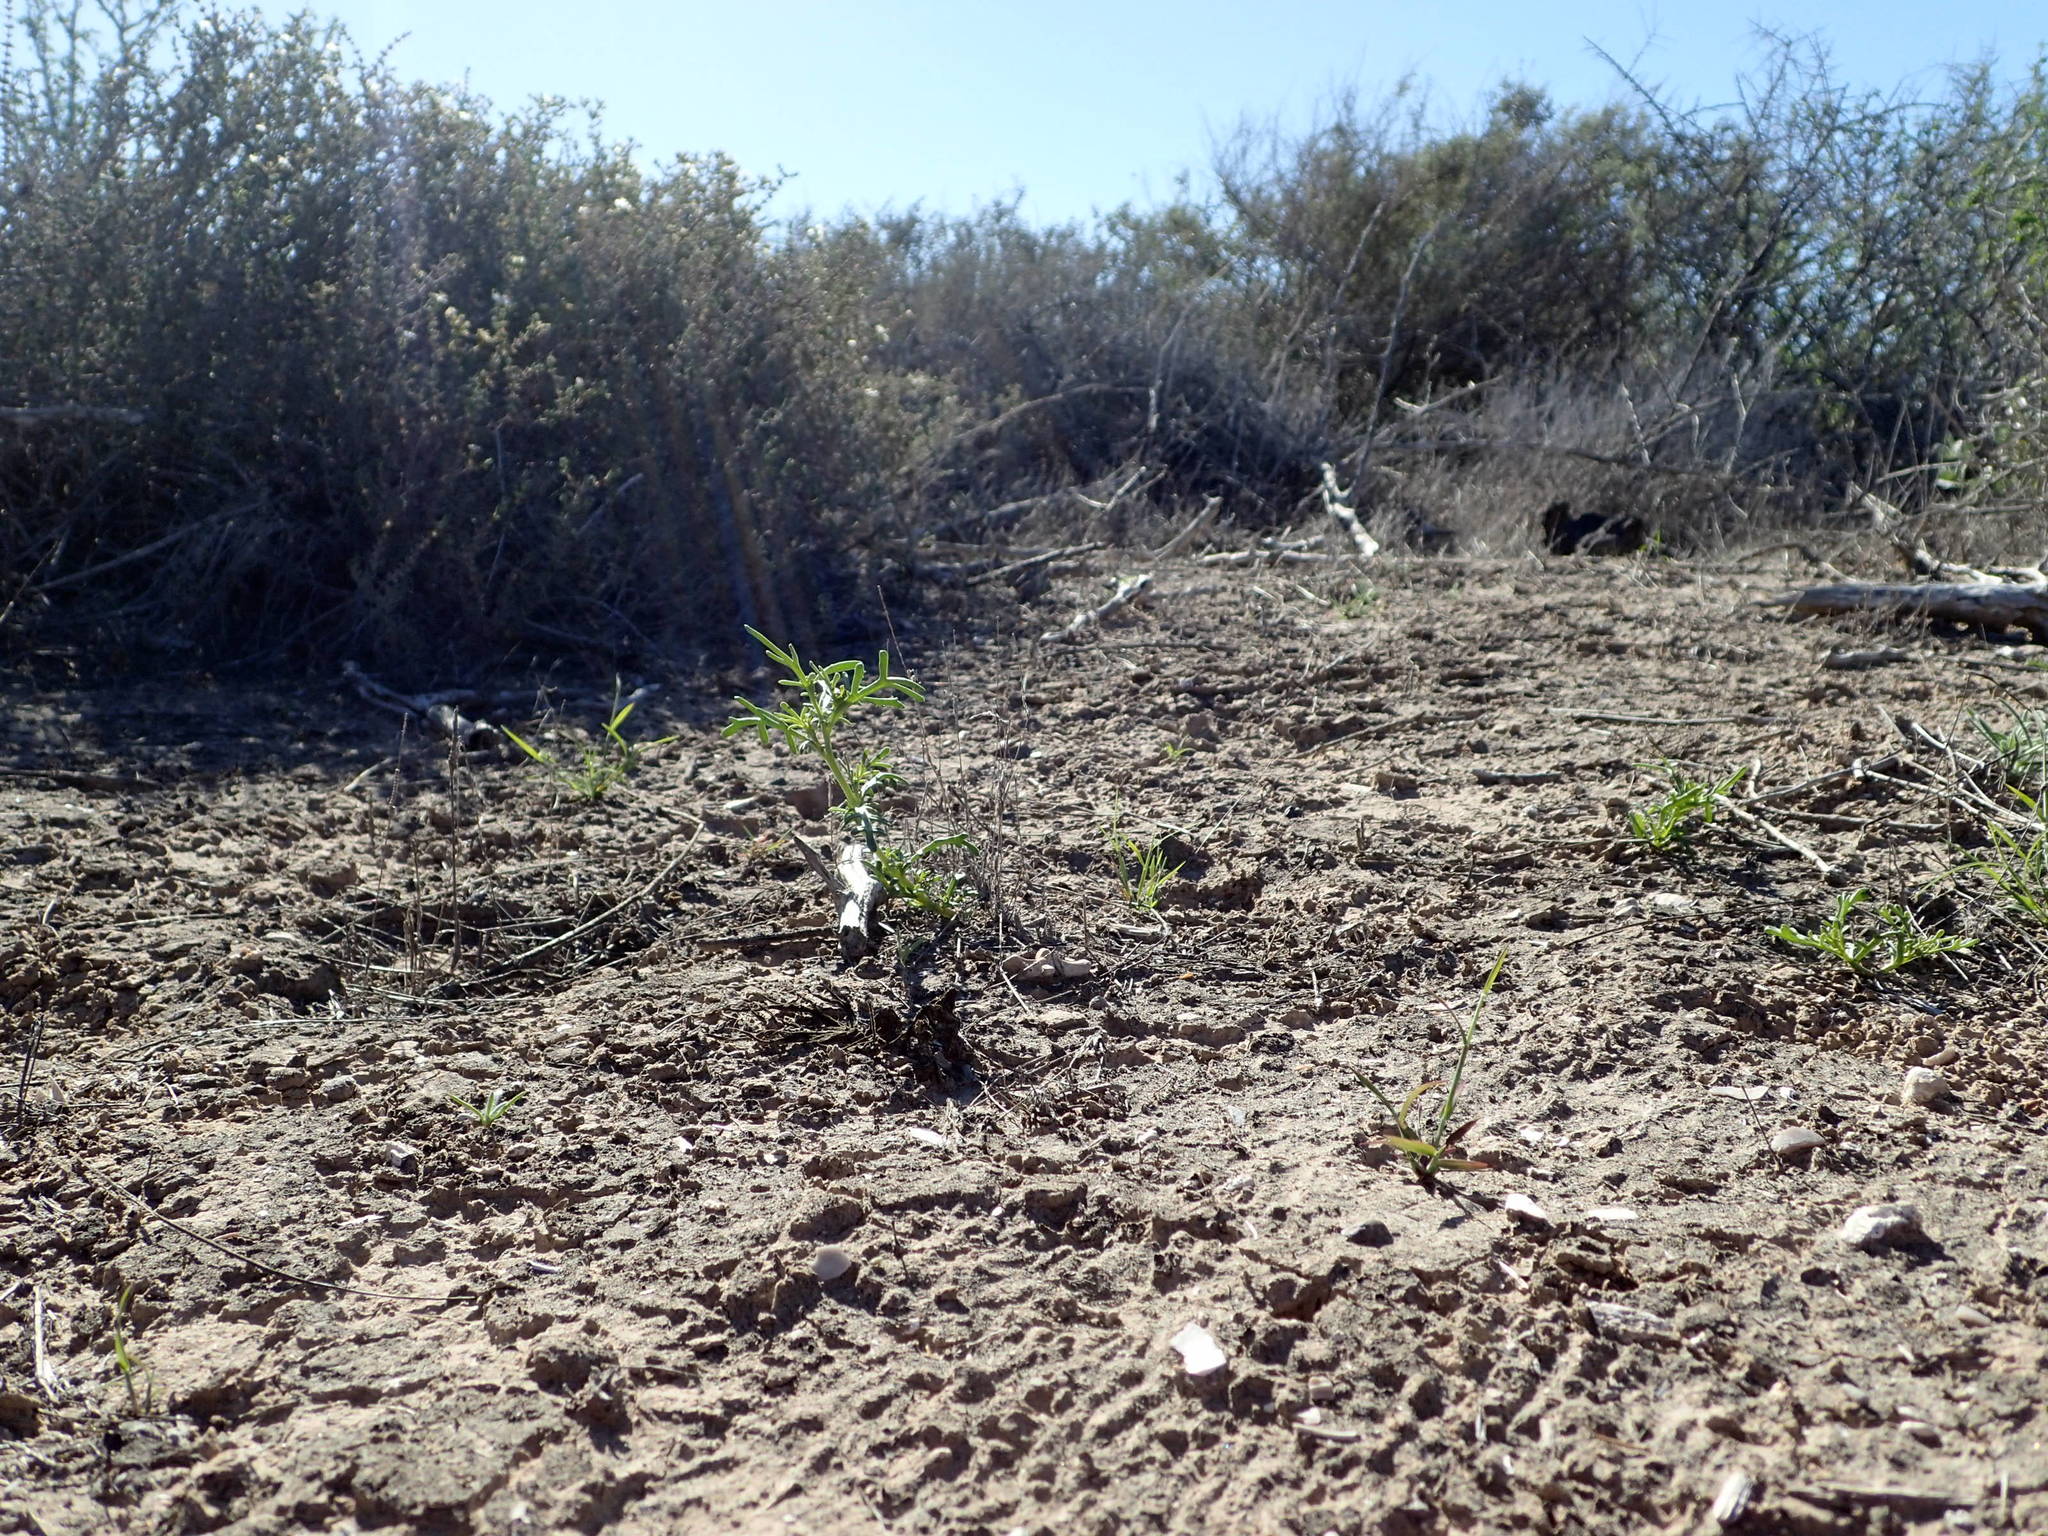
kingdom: Plantae
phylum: Tracheophyta
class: Magnoliopsida
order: Asterales
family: Asteraceae
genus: Boeberastrum
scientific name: Boeberastrum anthemidifolium
